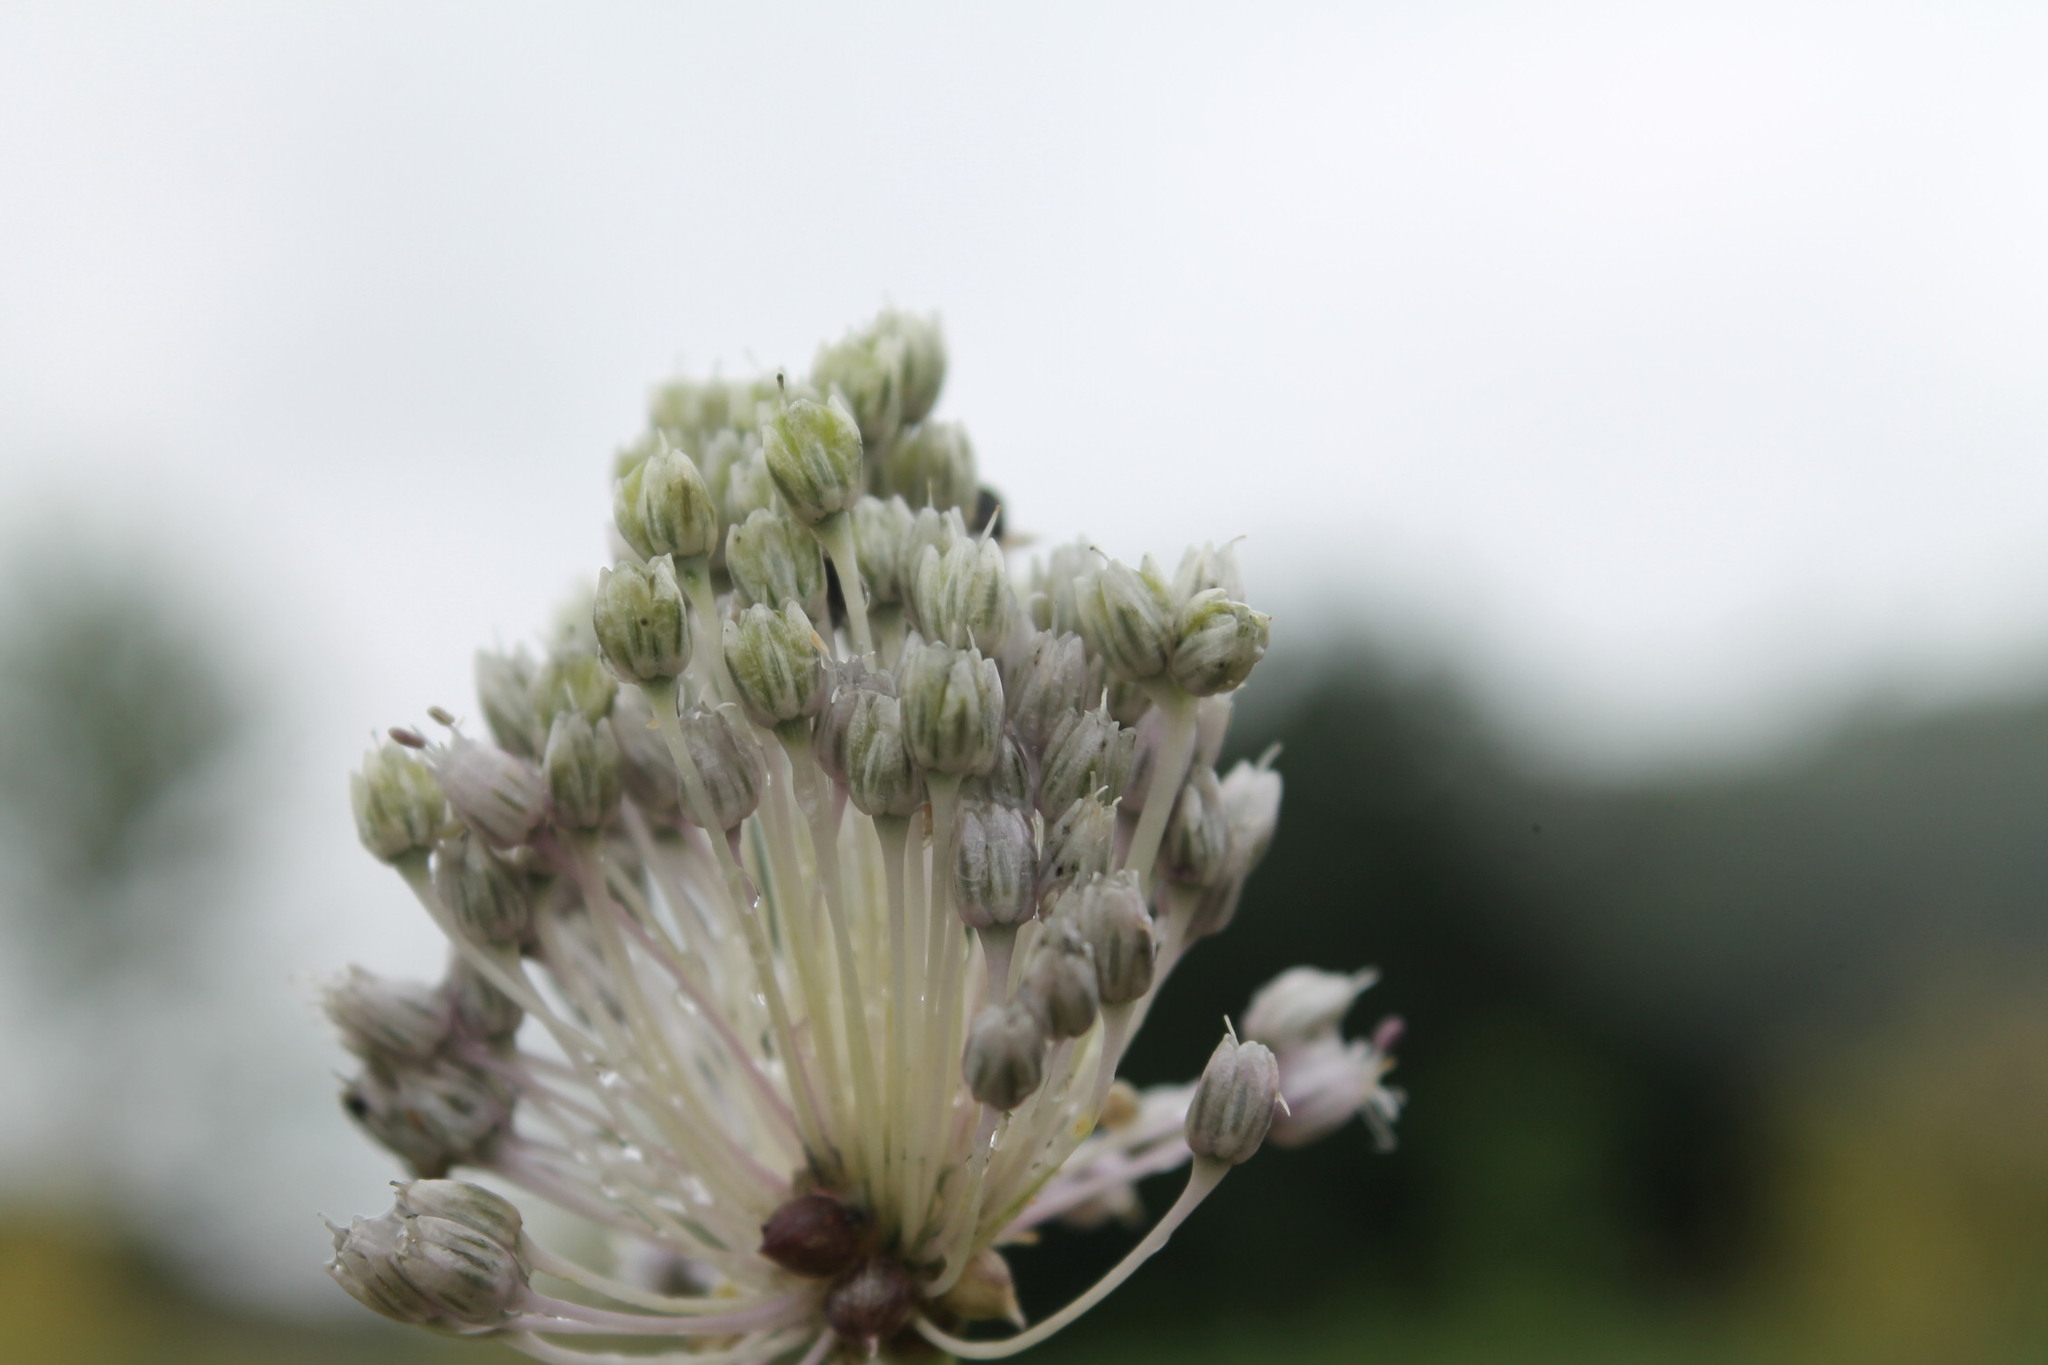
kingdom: Plantae
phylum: Tracheophyta
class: Liliopsida
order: Asparagales
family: Amaryllidaceae
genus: Allium
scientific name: Allium vineale
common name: Crow garlic
